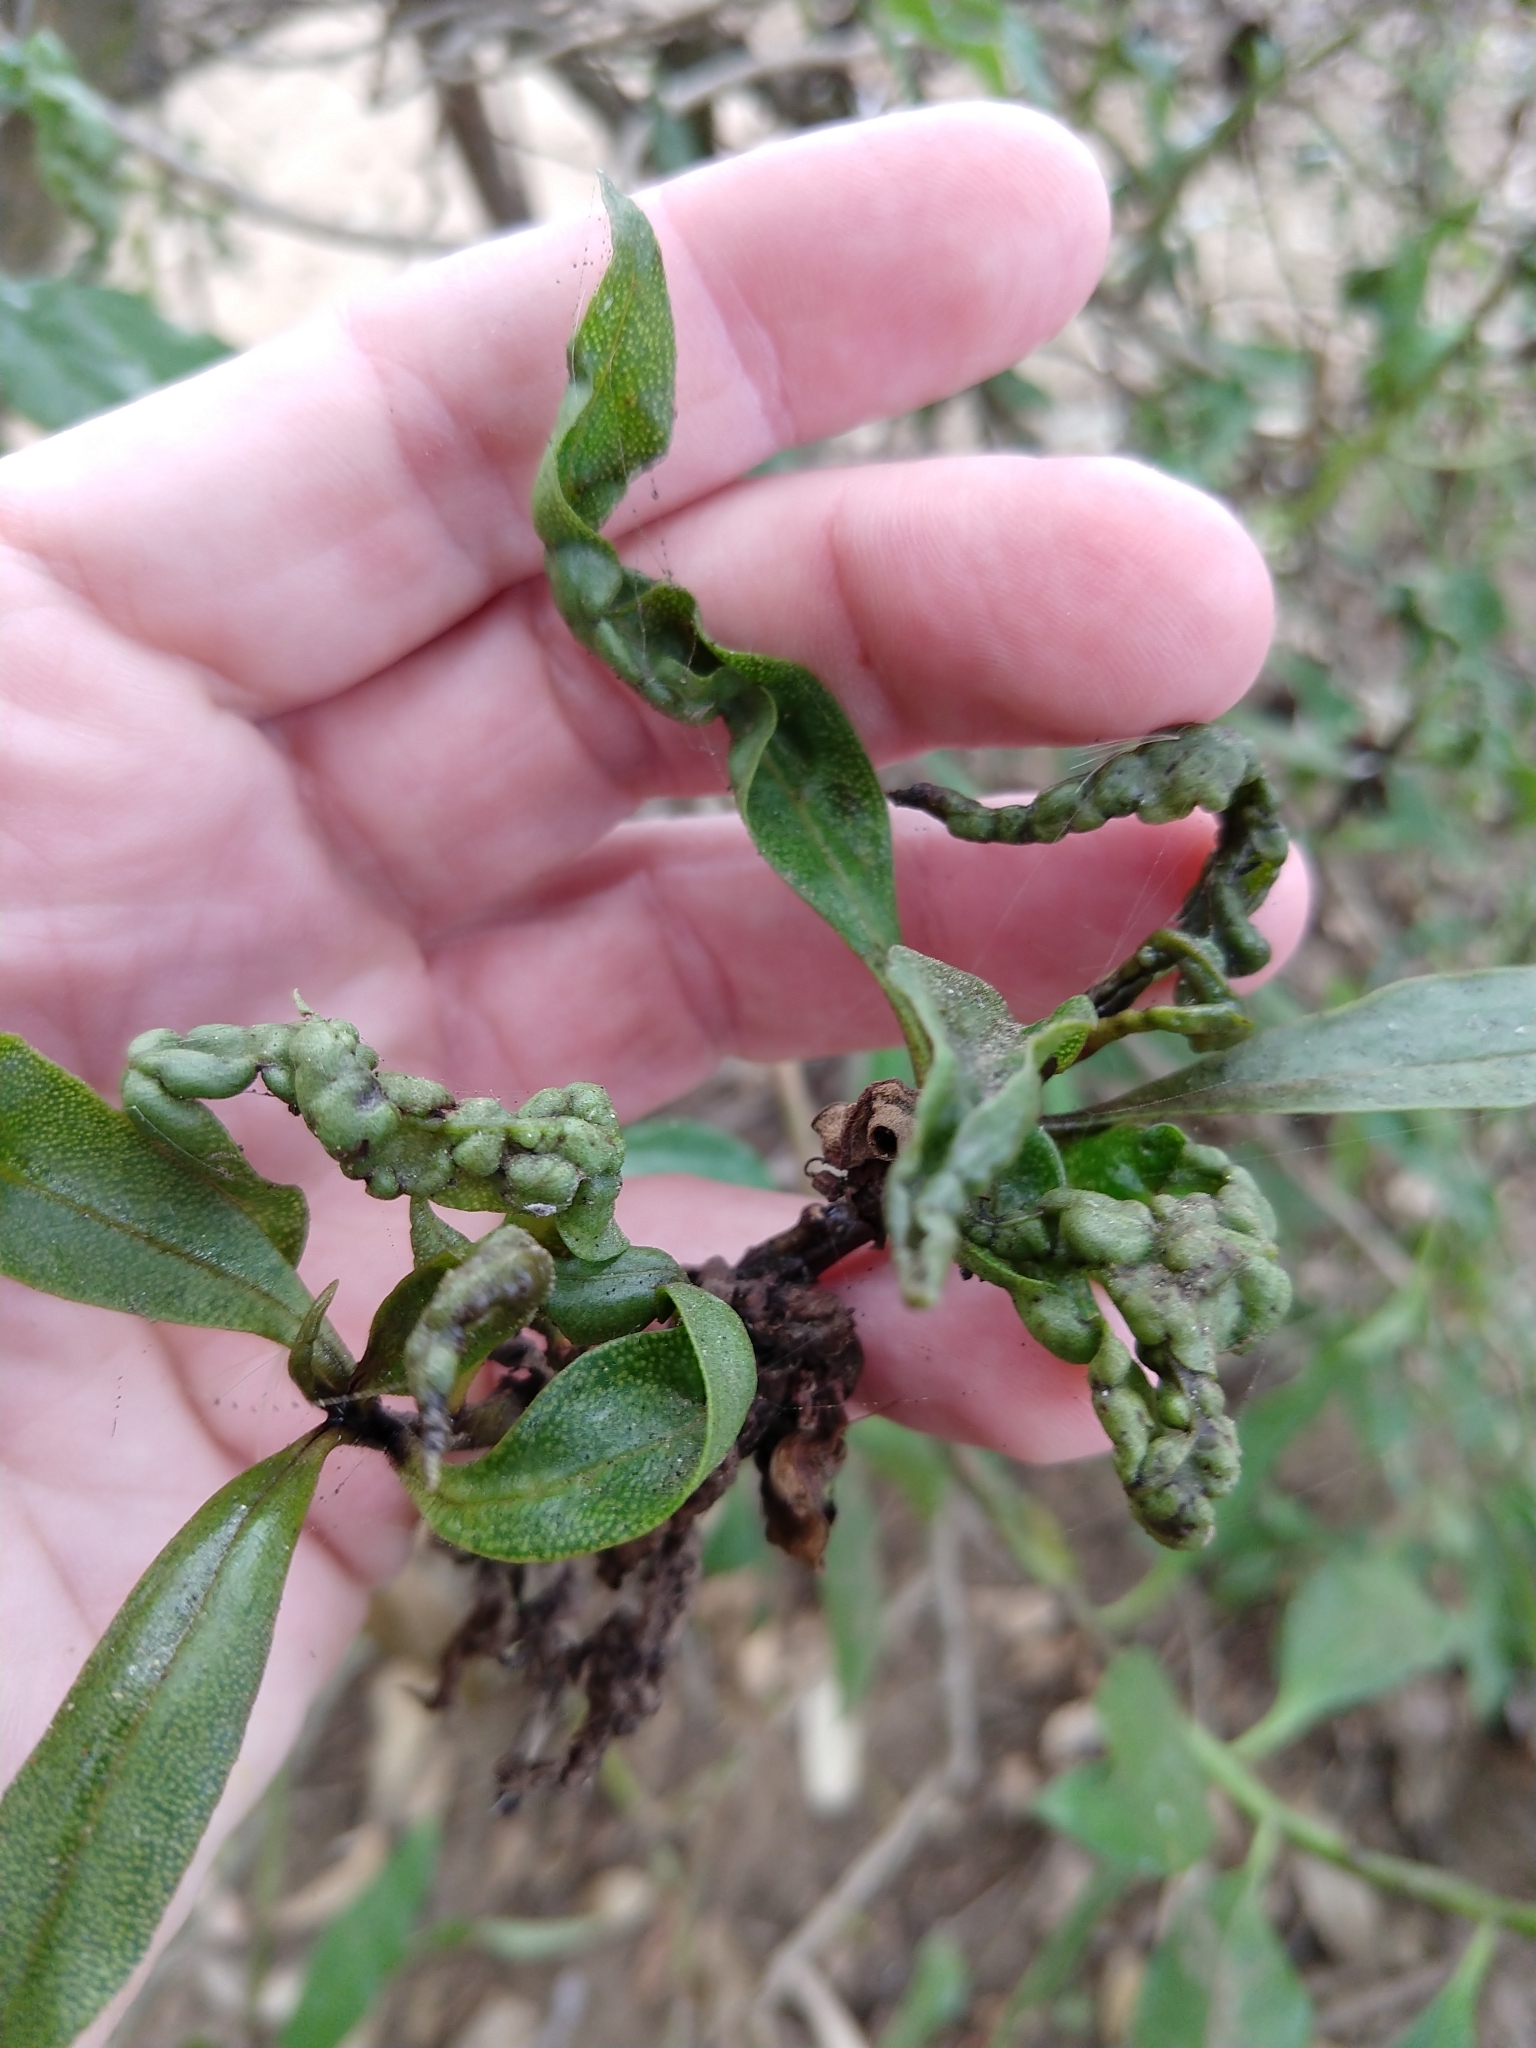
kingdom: Animalia
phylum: Arthropoda
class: Insecta
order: Thysanoptera
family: Phlaeothripidae
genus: Klambothrips
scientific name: Klambothrips myopori
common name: Myoporum thrips
